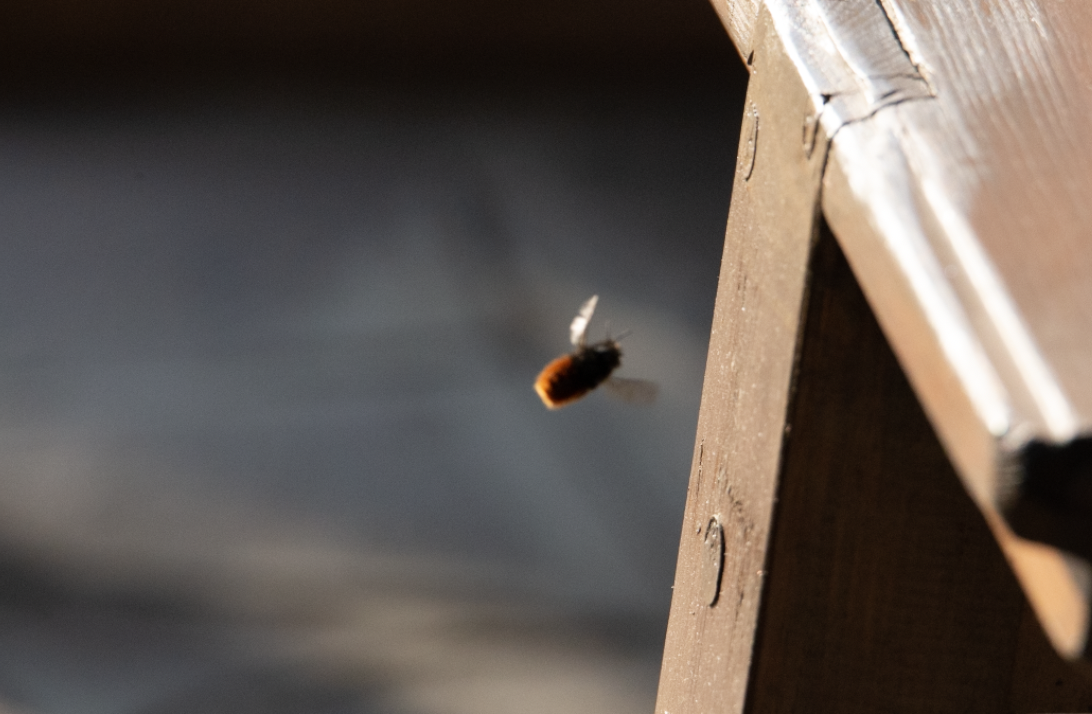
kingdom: Animalia
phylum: Arthropoda
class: Insecta
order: Hymenoptera
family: Megachilidae
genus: Osmia
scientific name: Osmia cornuta
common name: Mason bee
